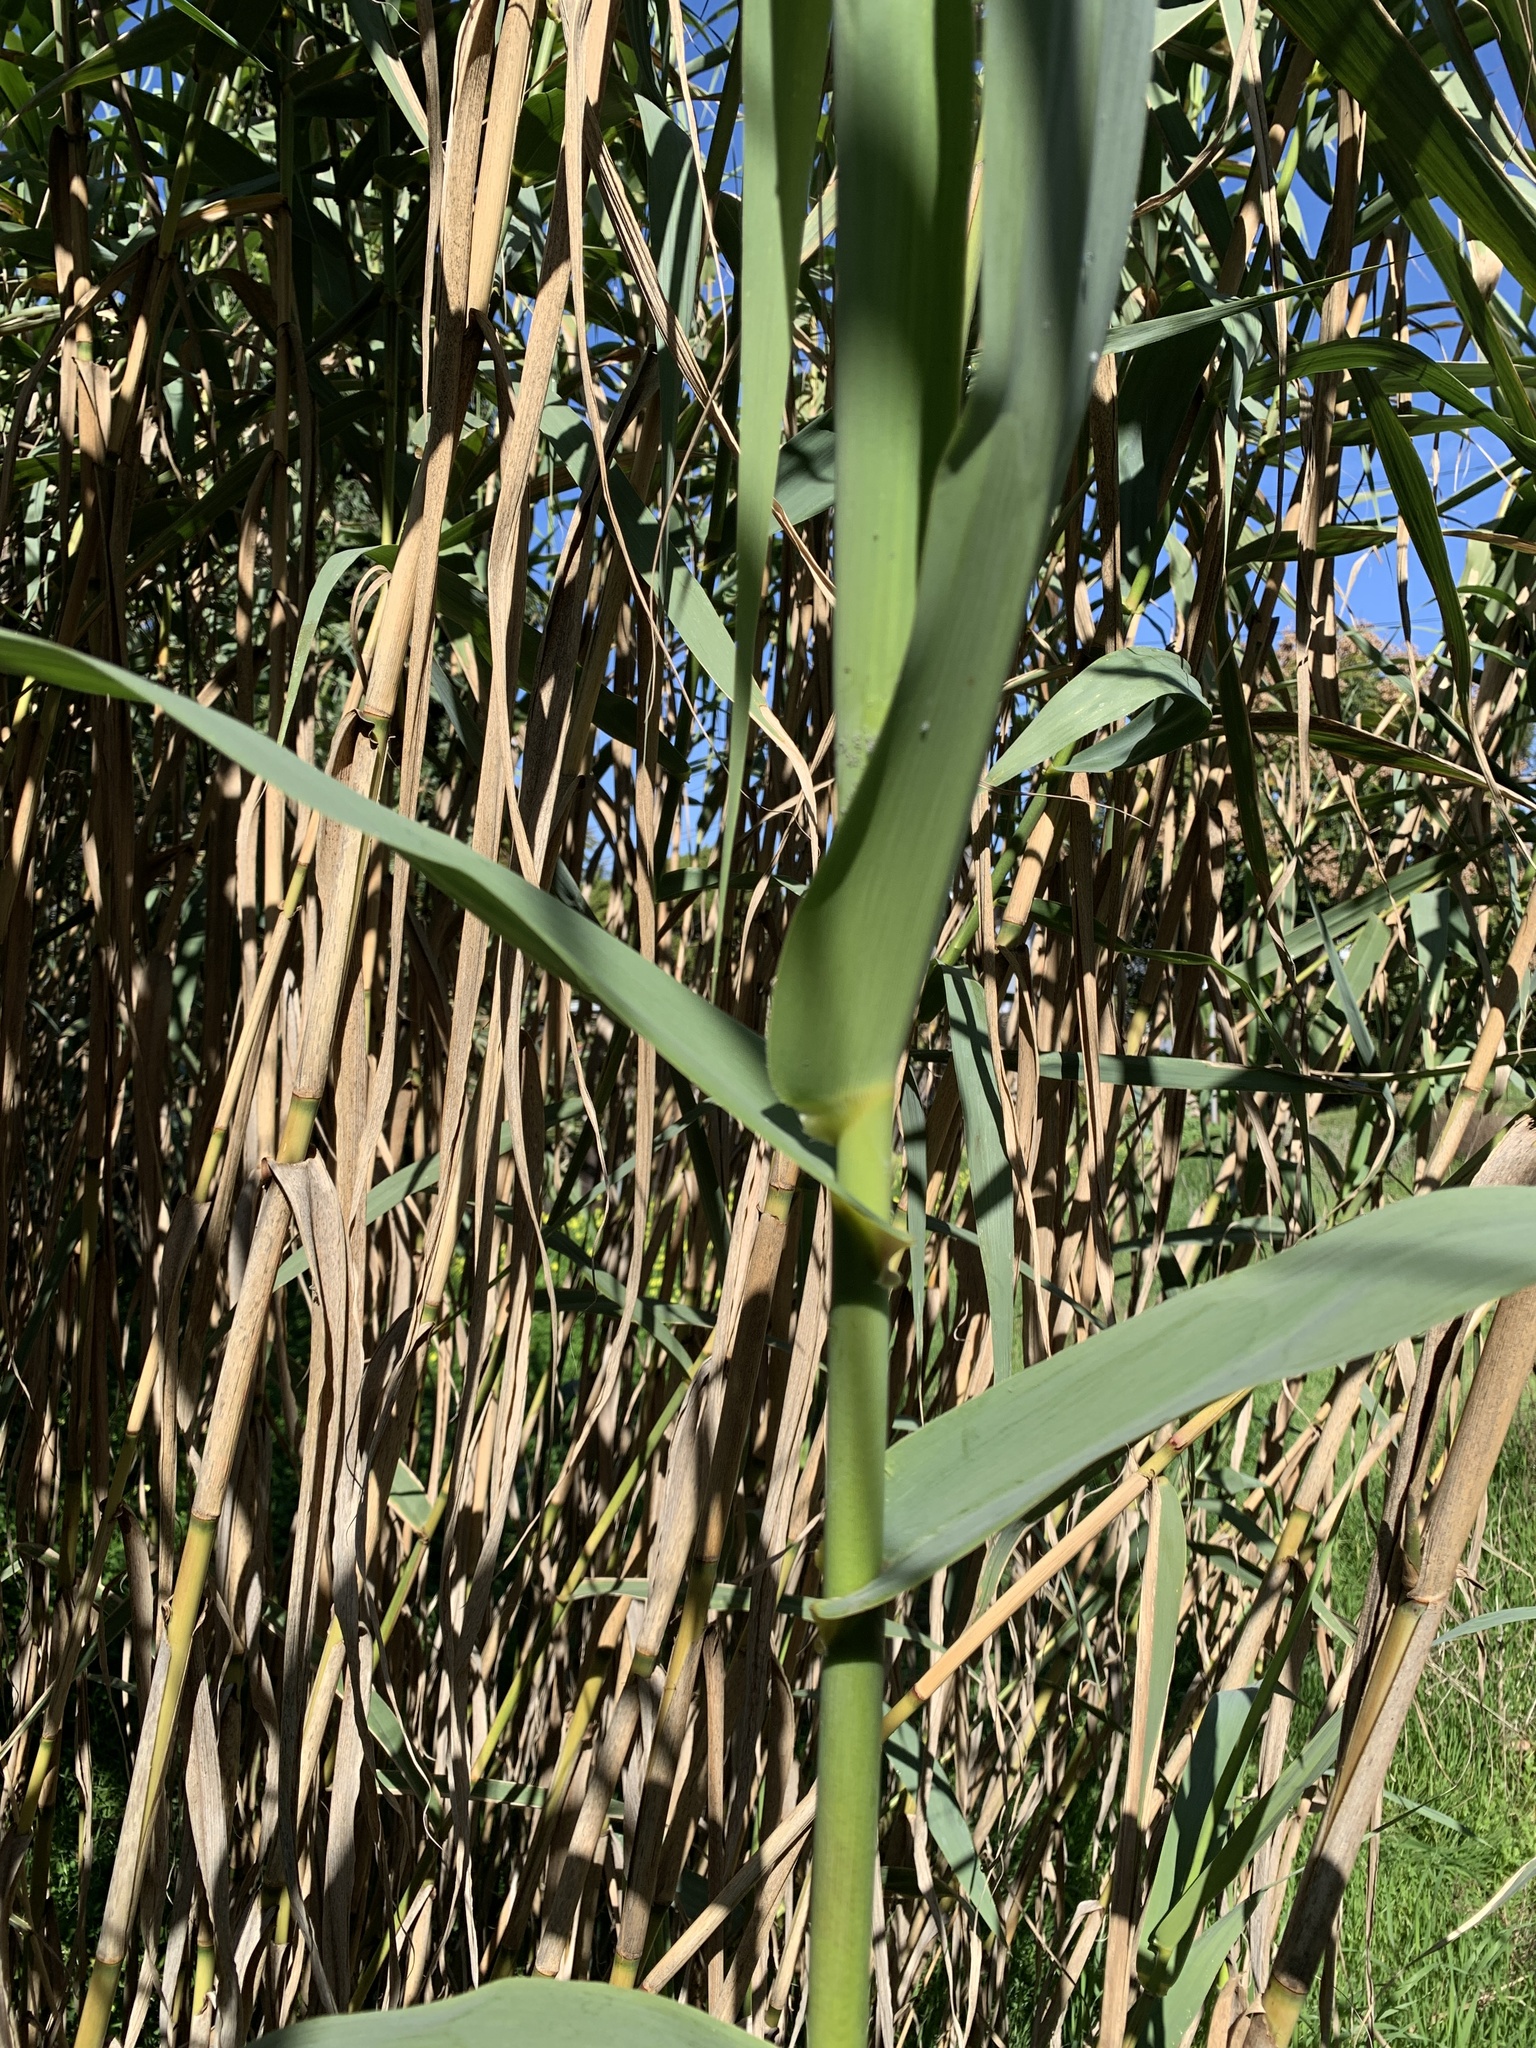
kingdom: Plantae
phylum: Tracheophyta
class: Liliopsida
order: Poales
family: Poaceae
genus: Arundo
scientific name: Arundo donax
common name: Giant reed
